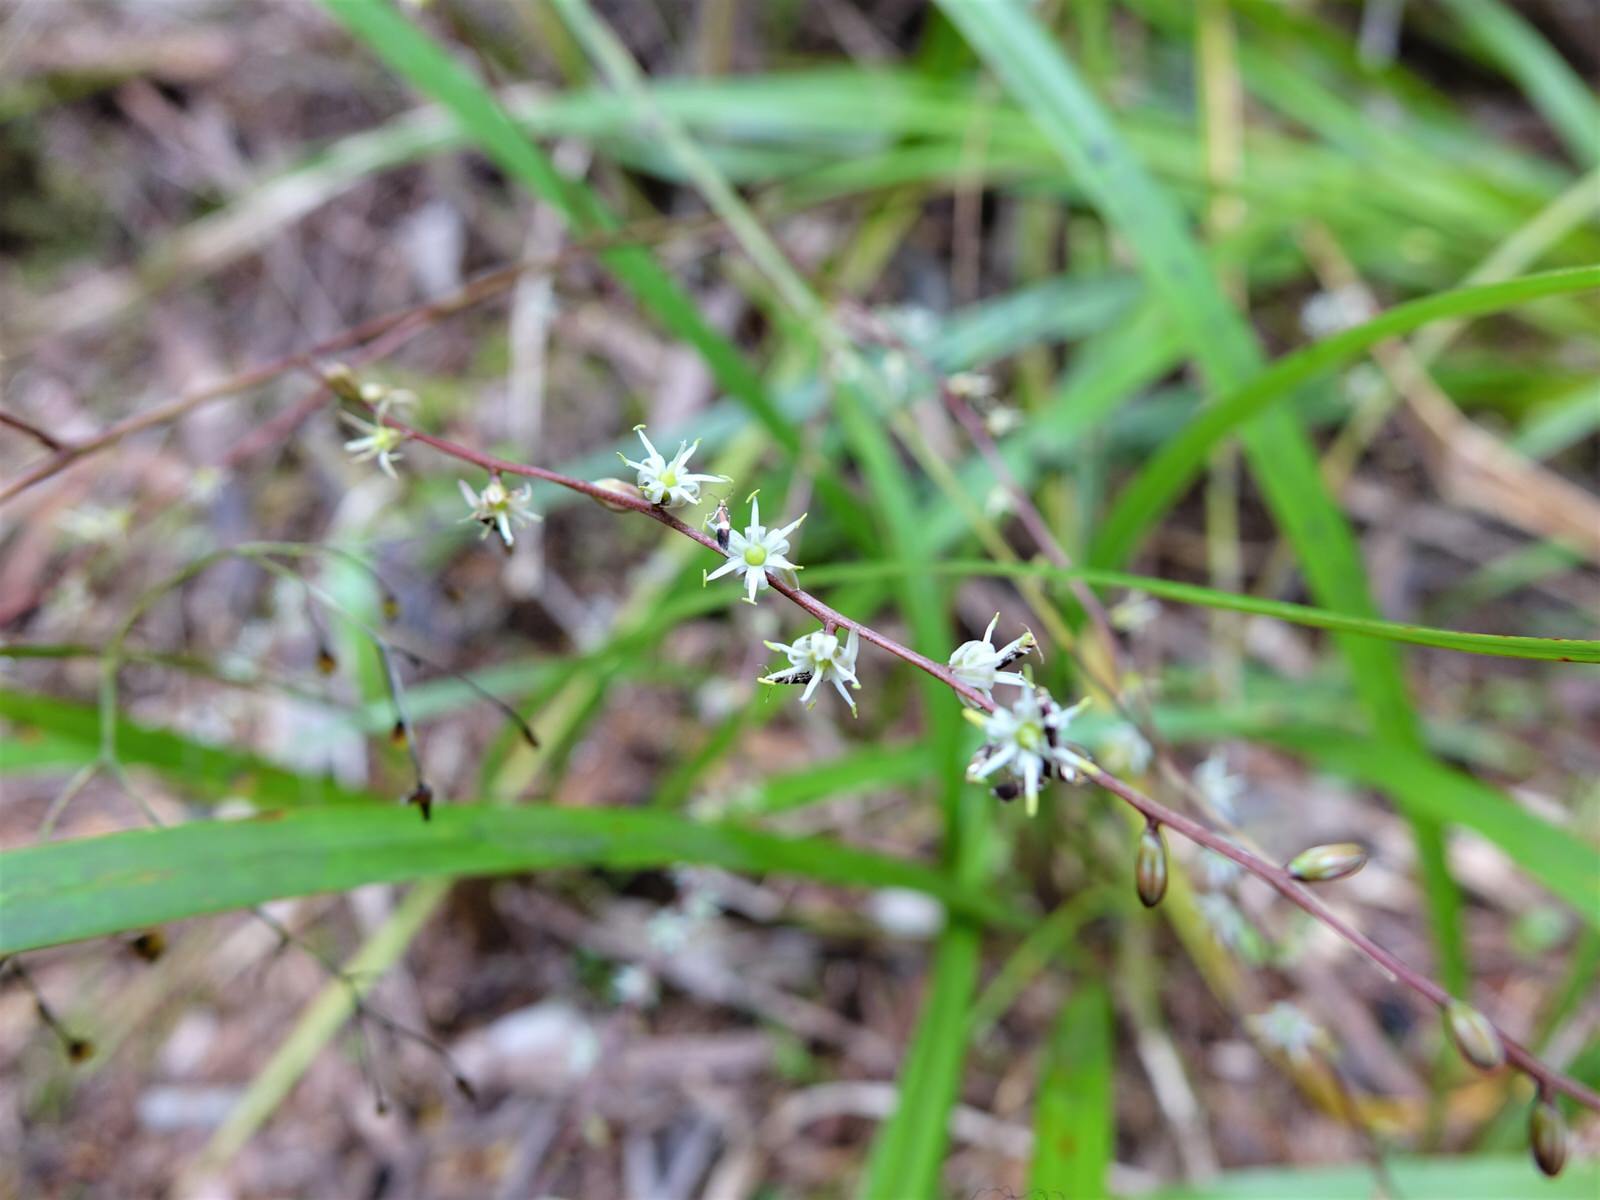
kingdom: Animalia
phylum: Arthropoda
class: Insecta
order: Lepidoptera
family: Micropterigidae
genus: Zealandopterix
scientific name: Zealandopterix zonodoxa
